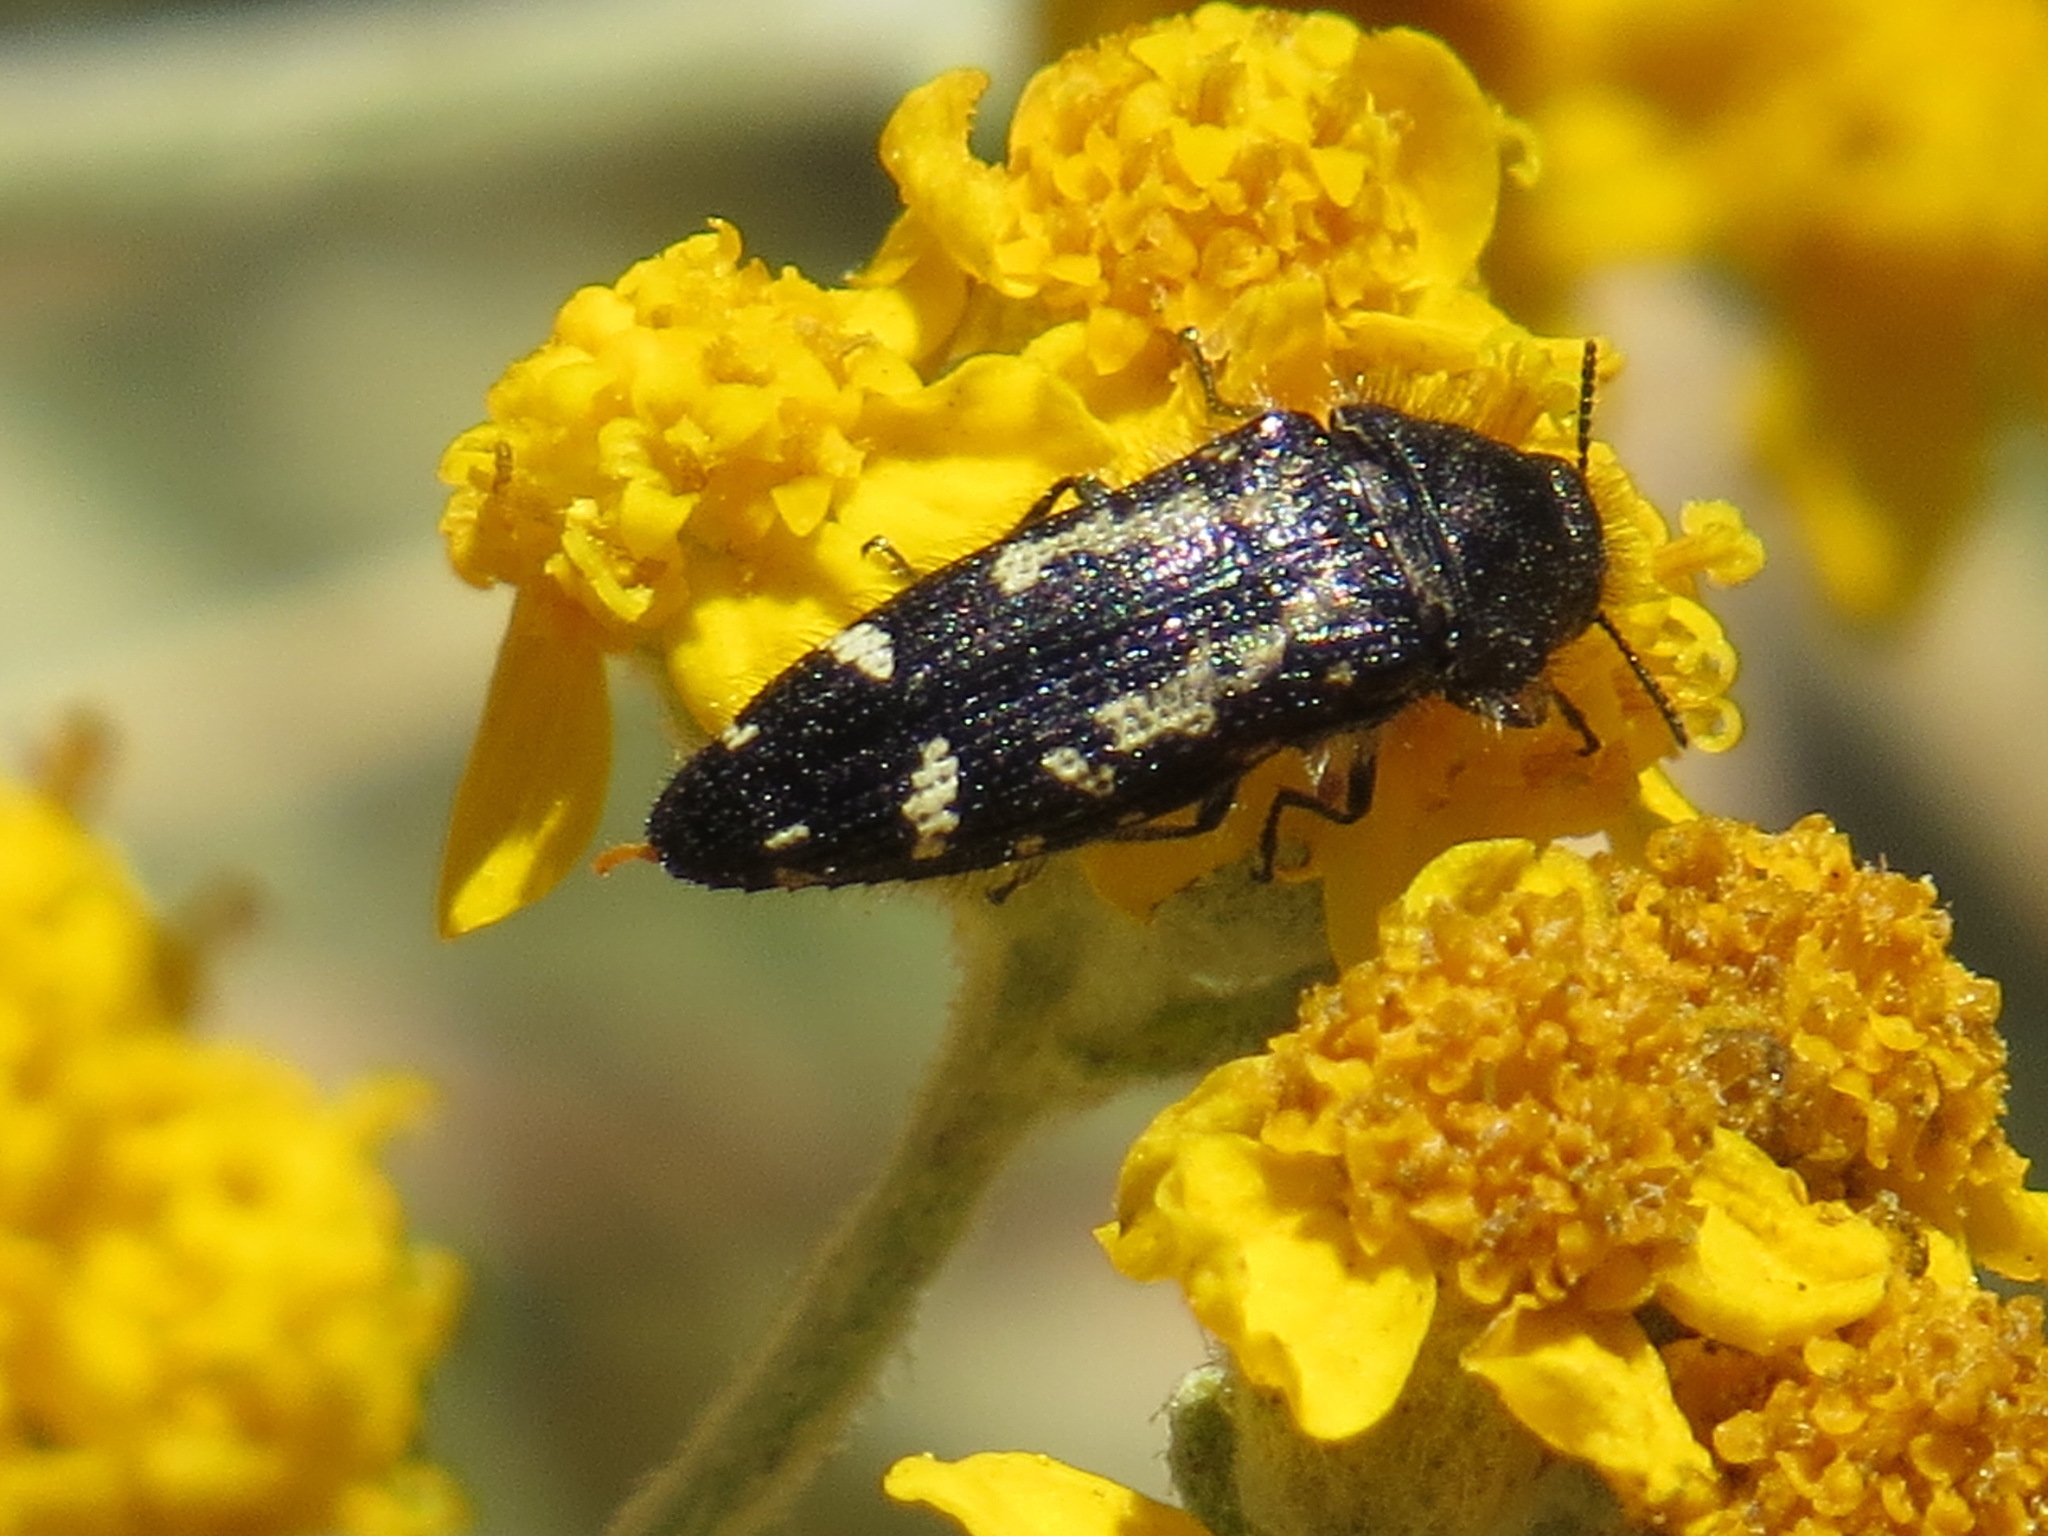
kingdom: Animalia
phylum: Arthropoda
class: Insecta
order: Coleoptera
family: Buprestidae
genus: Acmaeodera
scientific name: Acmaeodera retifera
